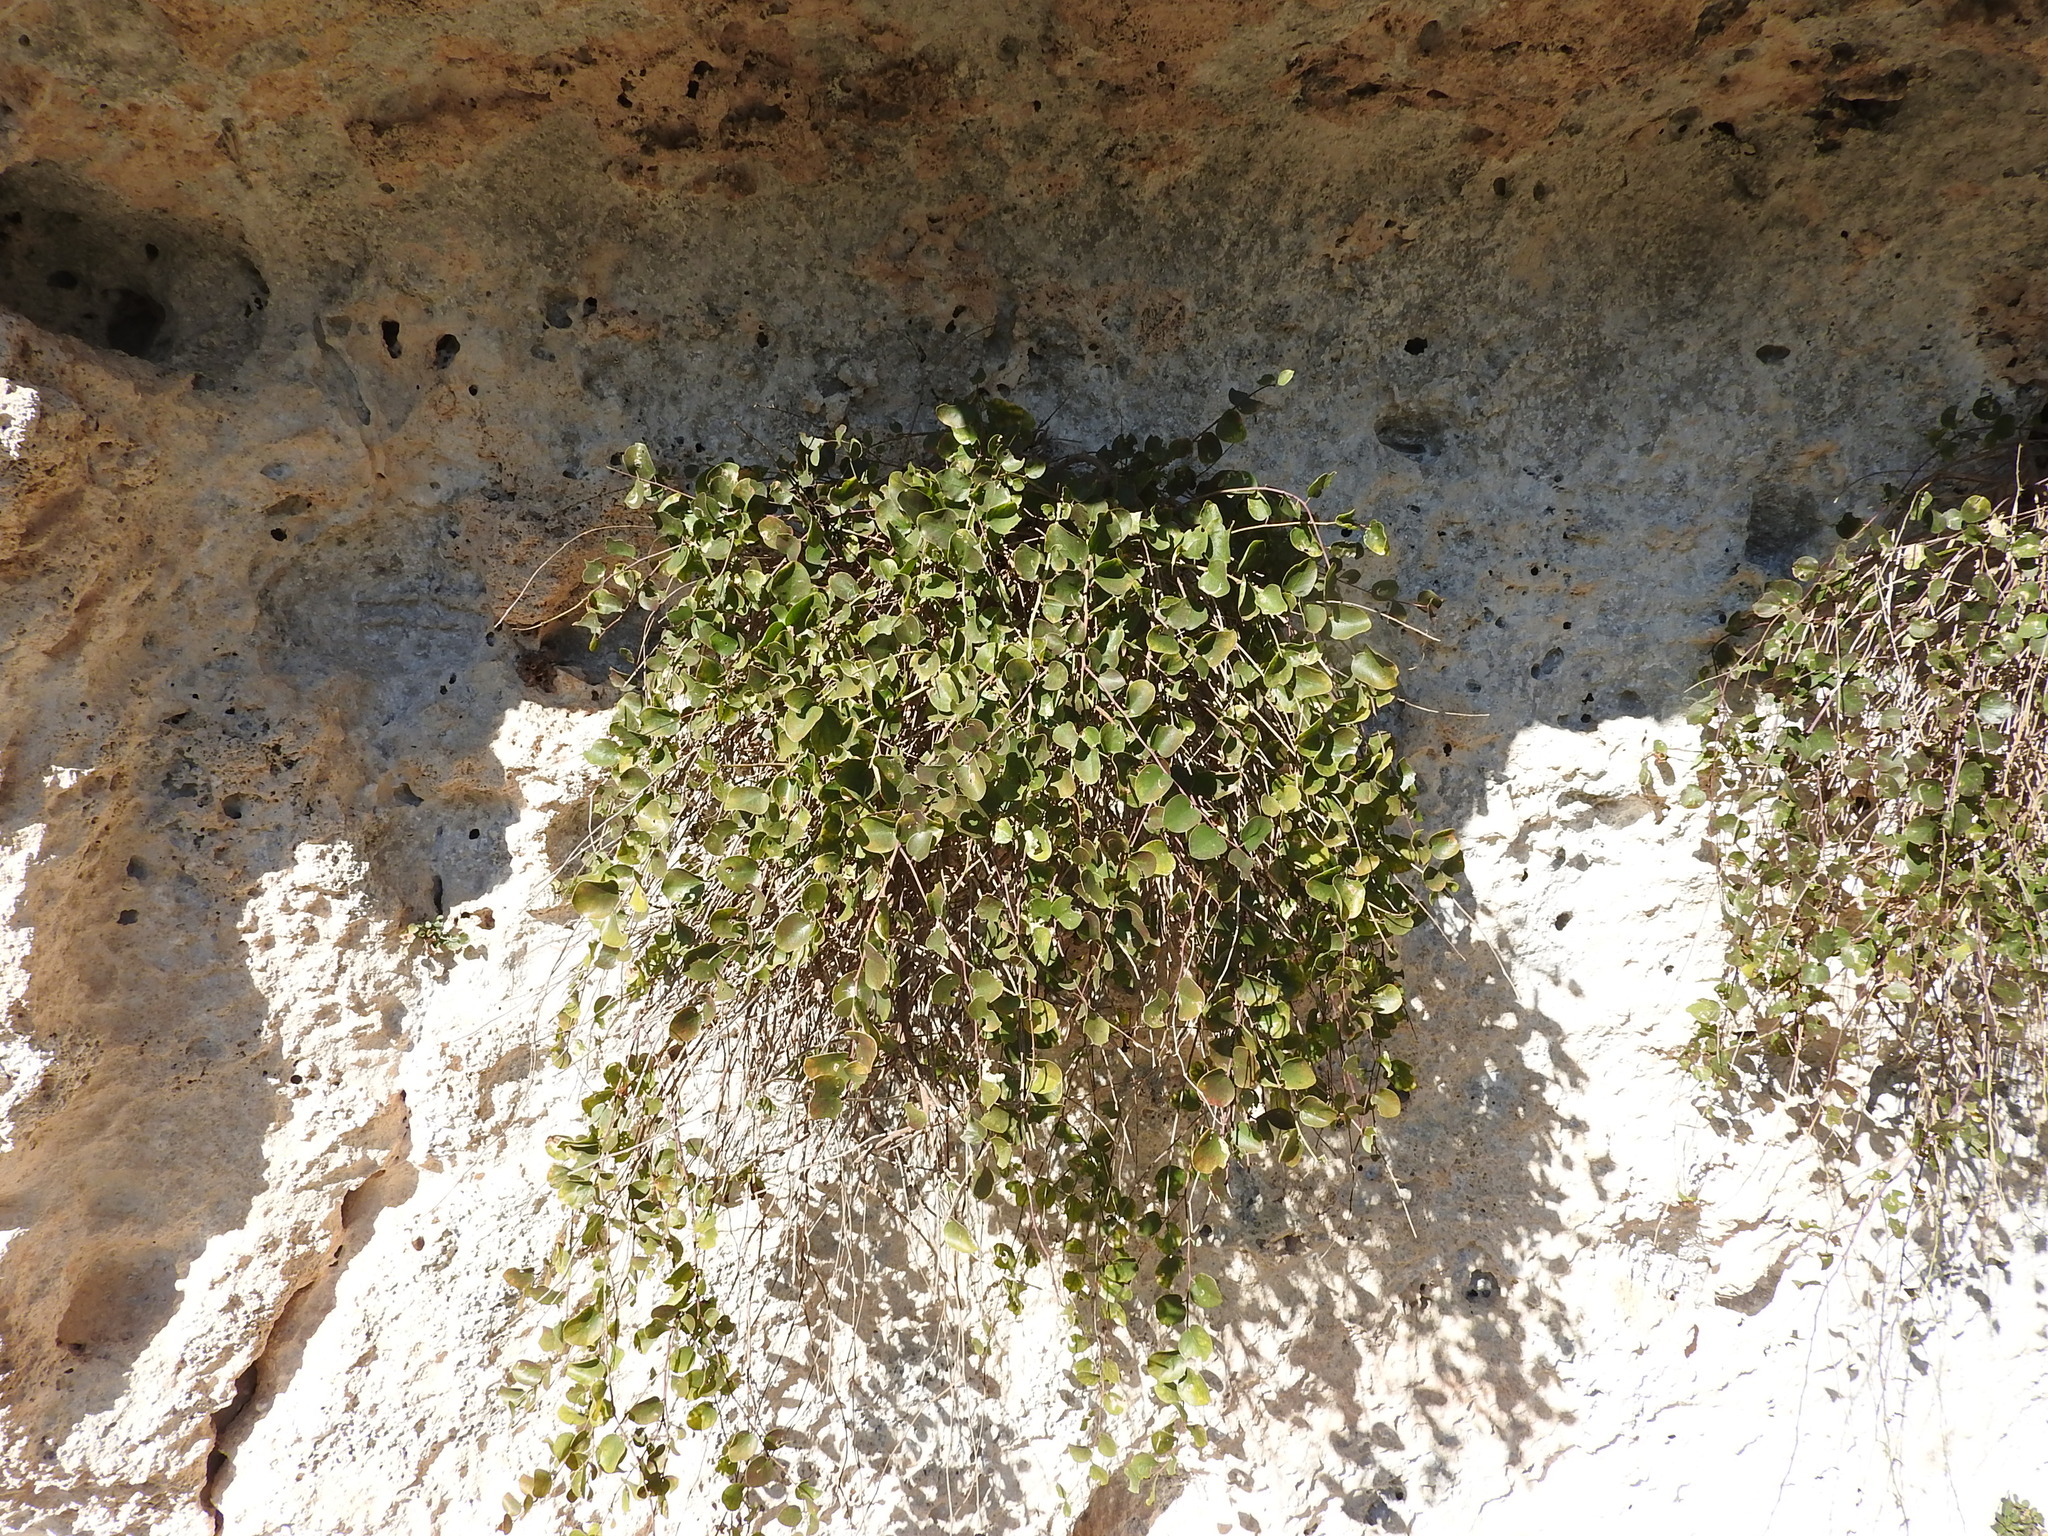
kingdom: Plantae
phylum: Tracheophyta
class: Magnoliopsida
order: Brassicales
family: Capparaceae
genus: Capparis
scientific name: Capparis spinosa
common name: Caper
